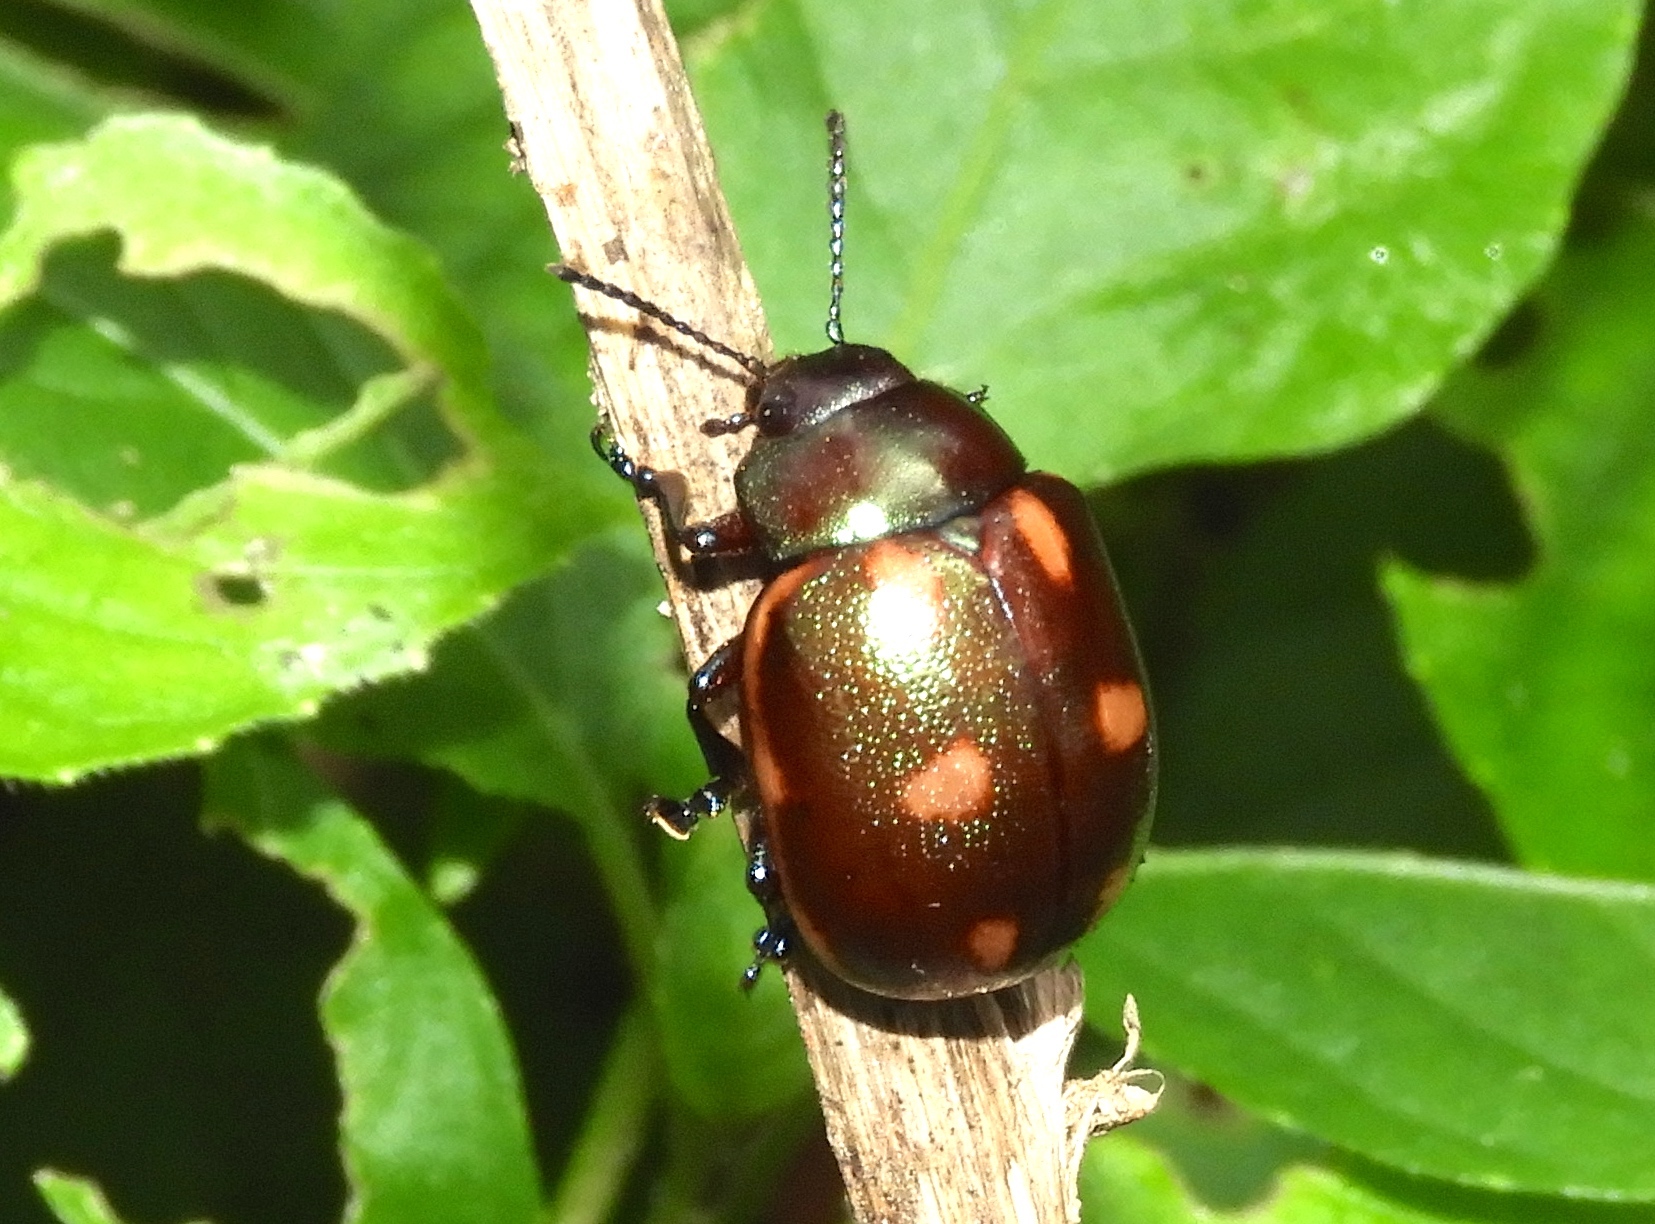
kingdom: Animalia
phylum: Arthropoda
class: Insecta
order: Coleoptera
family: Chrysomelidae
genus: Leptinotarsa
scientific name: Leptinotarsa behrensi
